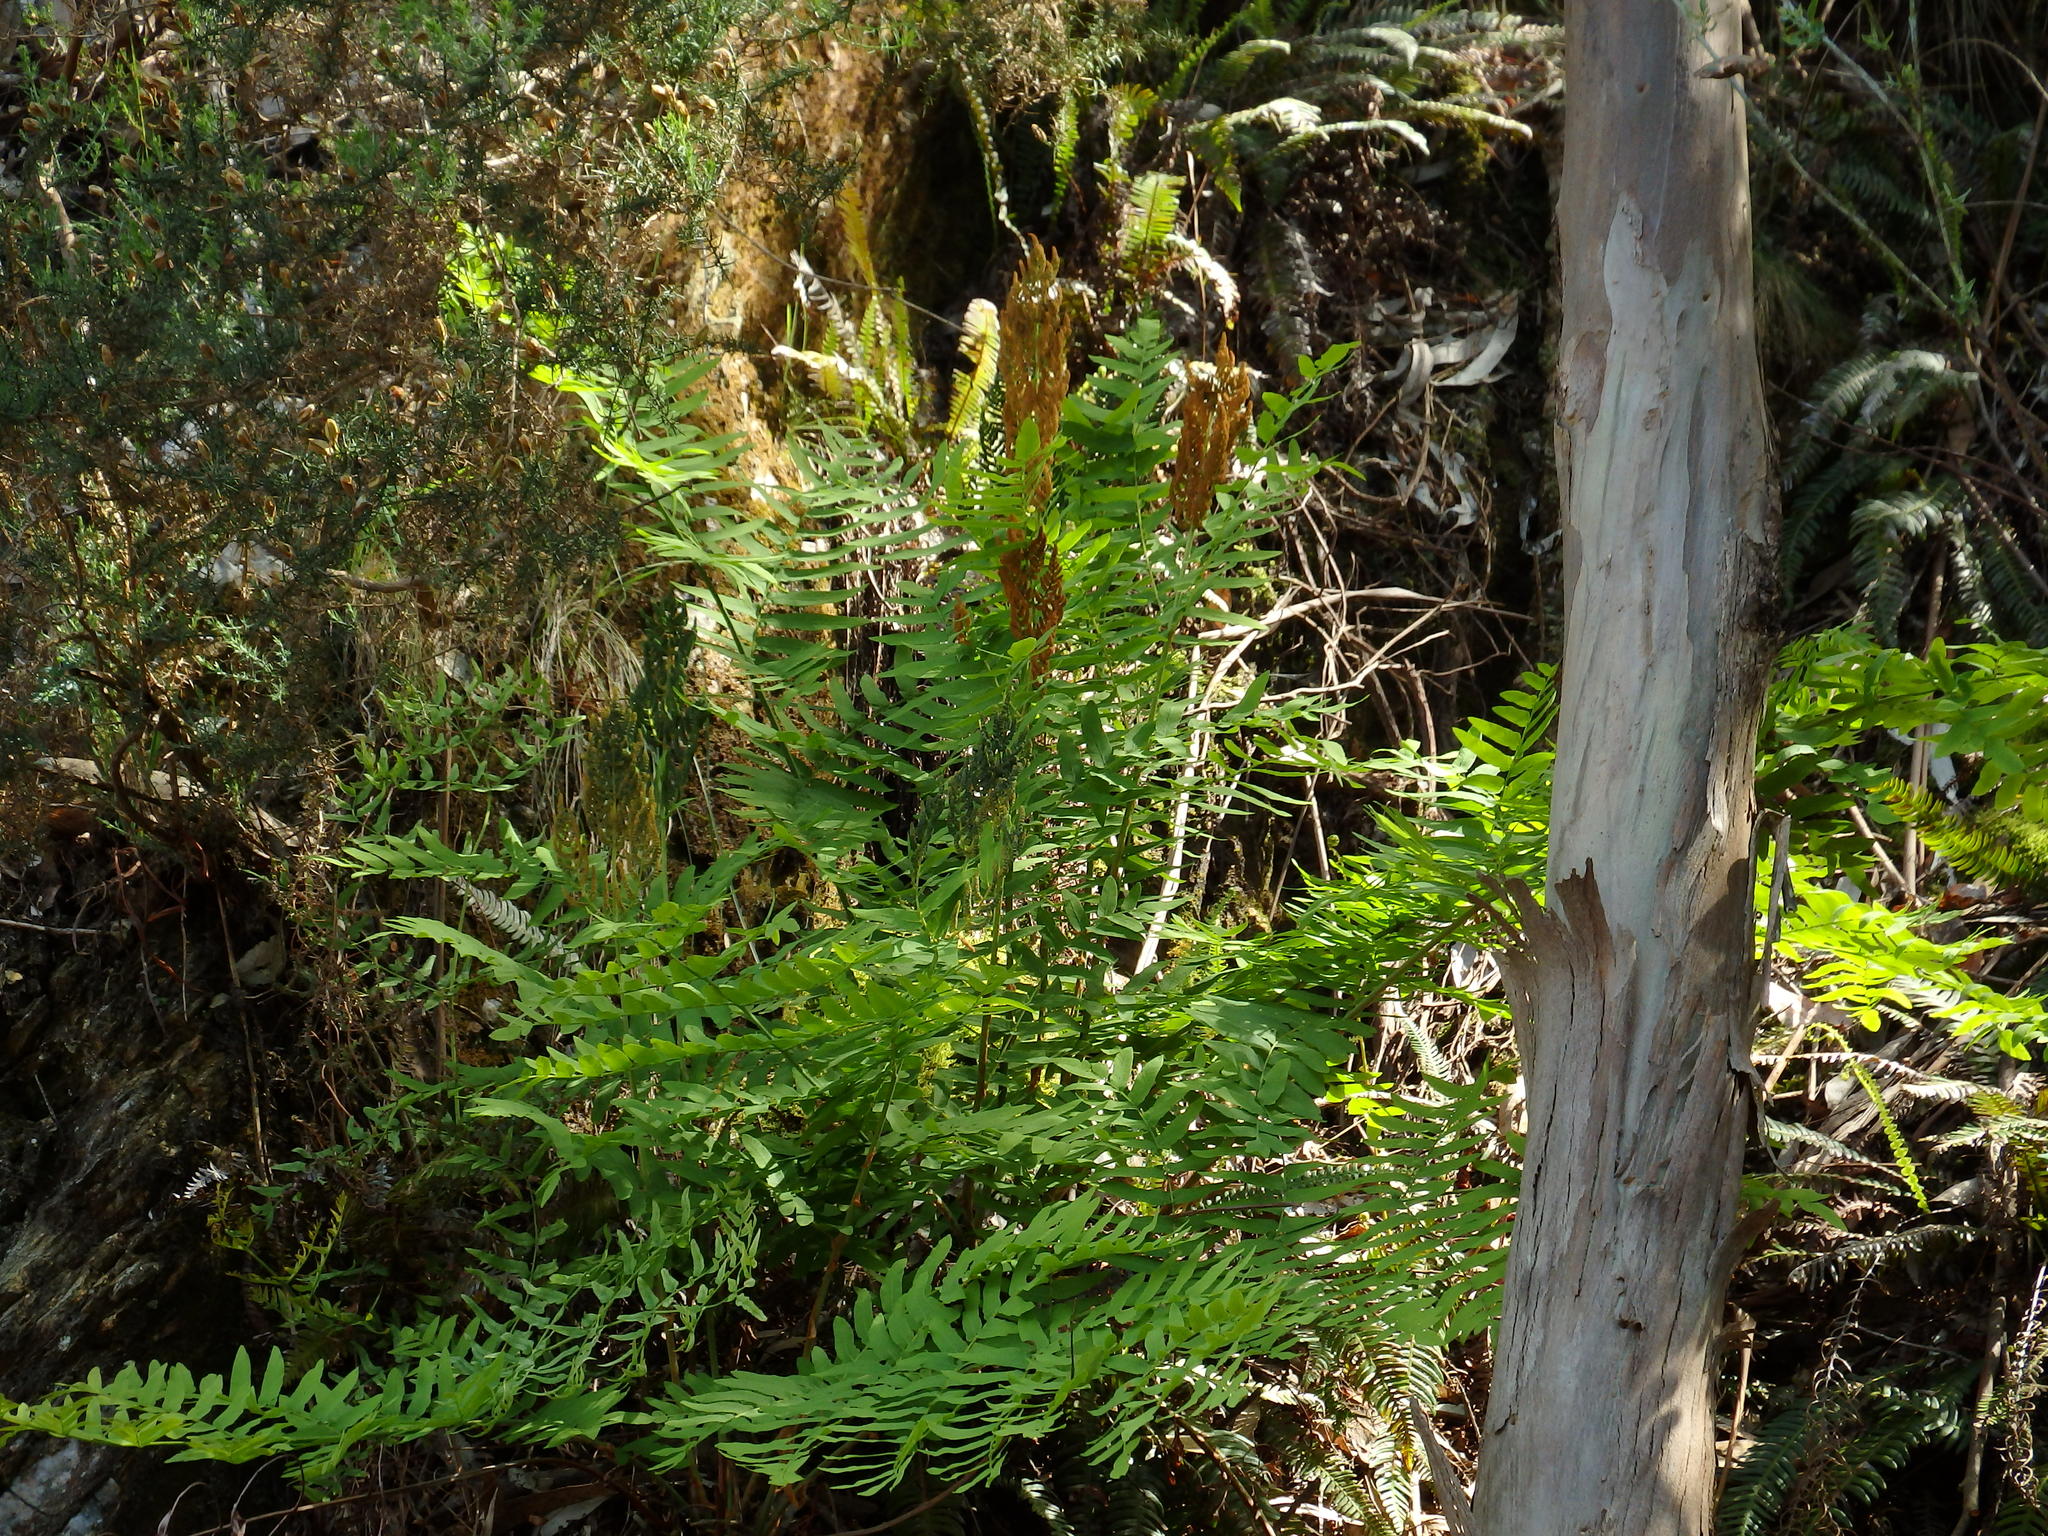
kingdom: Plantae
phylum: Tracheophyta
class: Polypodiopsida
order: Osmundales
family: Osmundaceae
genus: Osmunda
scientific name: Osmunda regalis
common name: Royal fern
